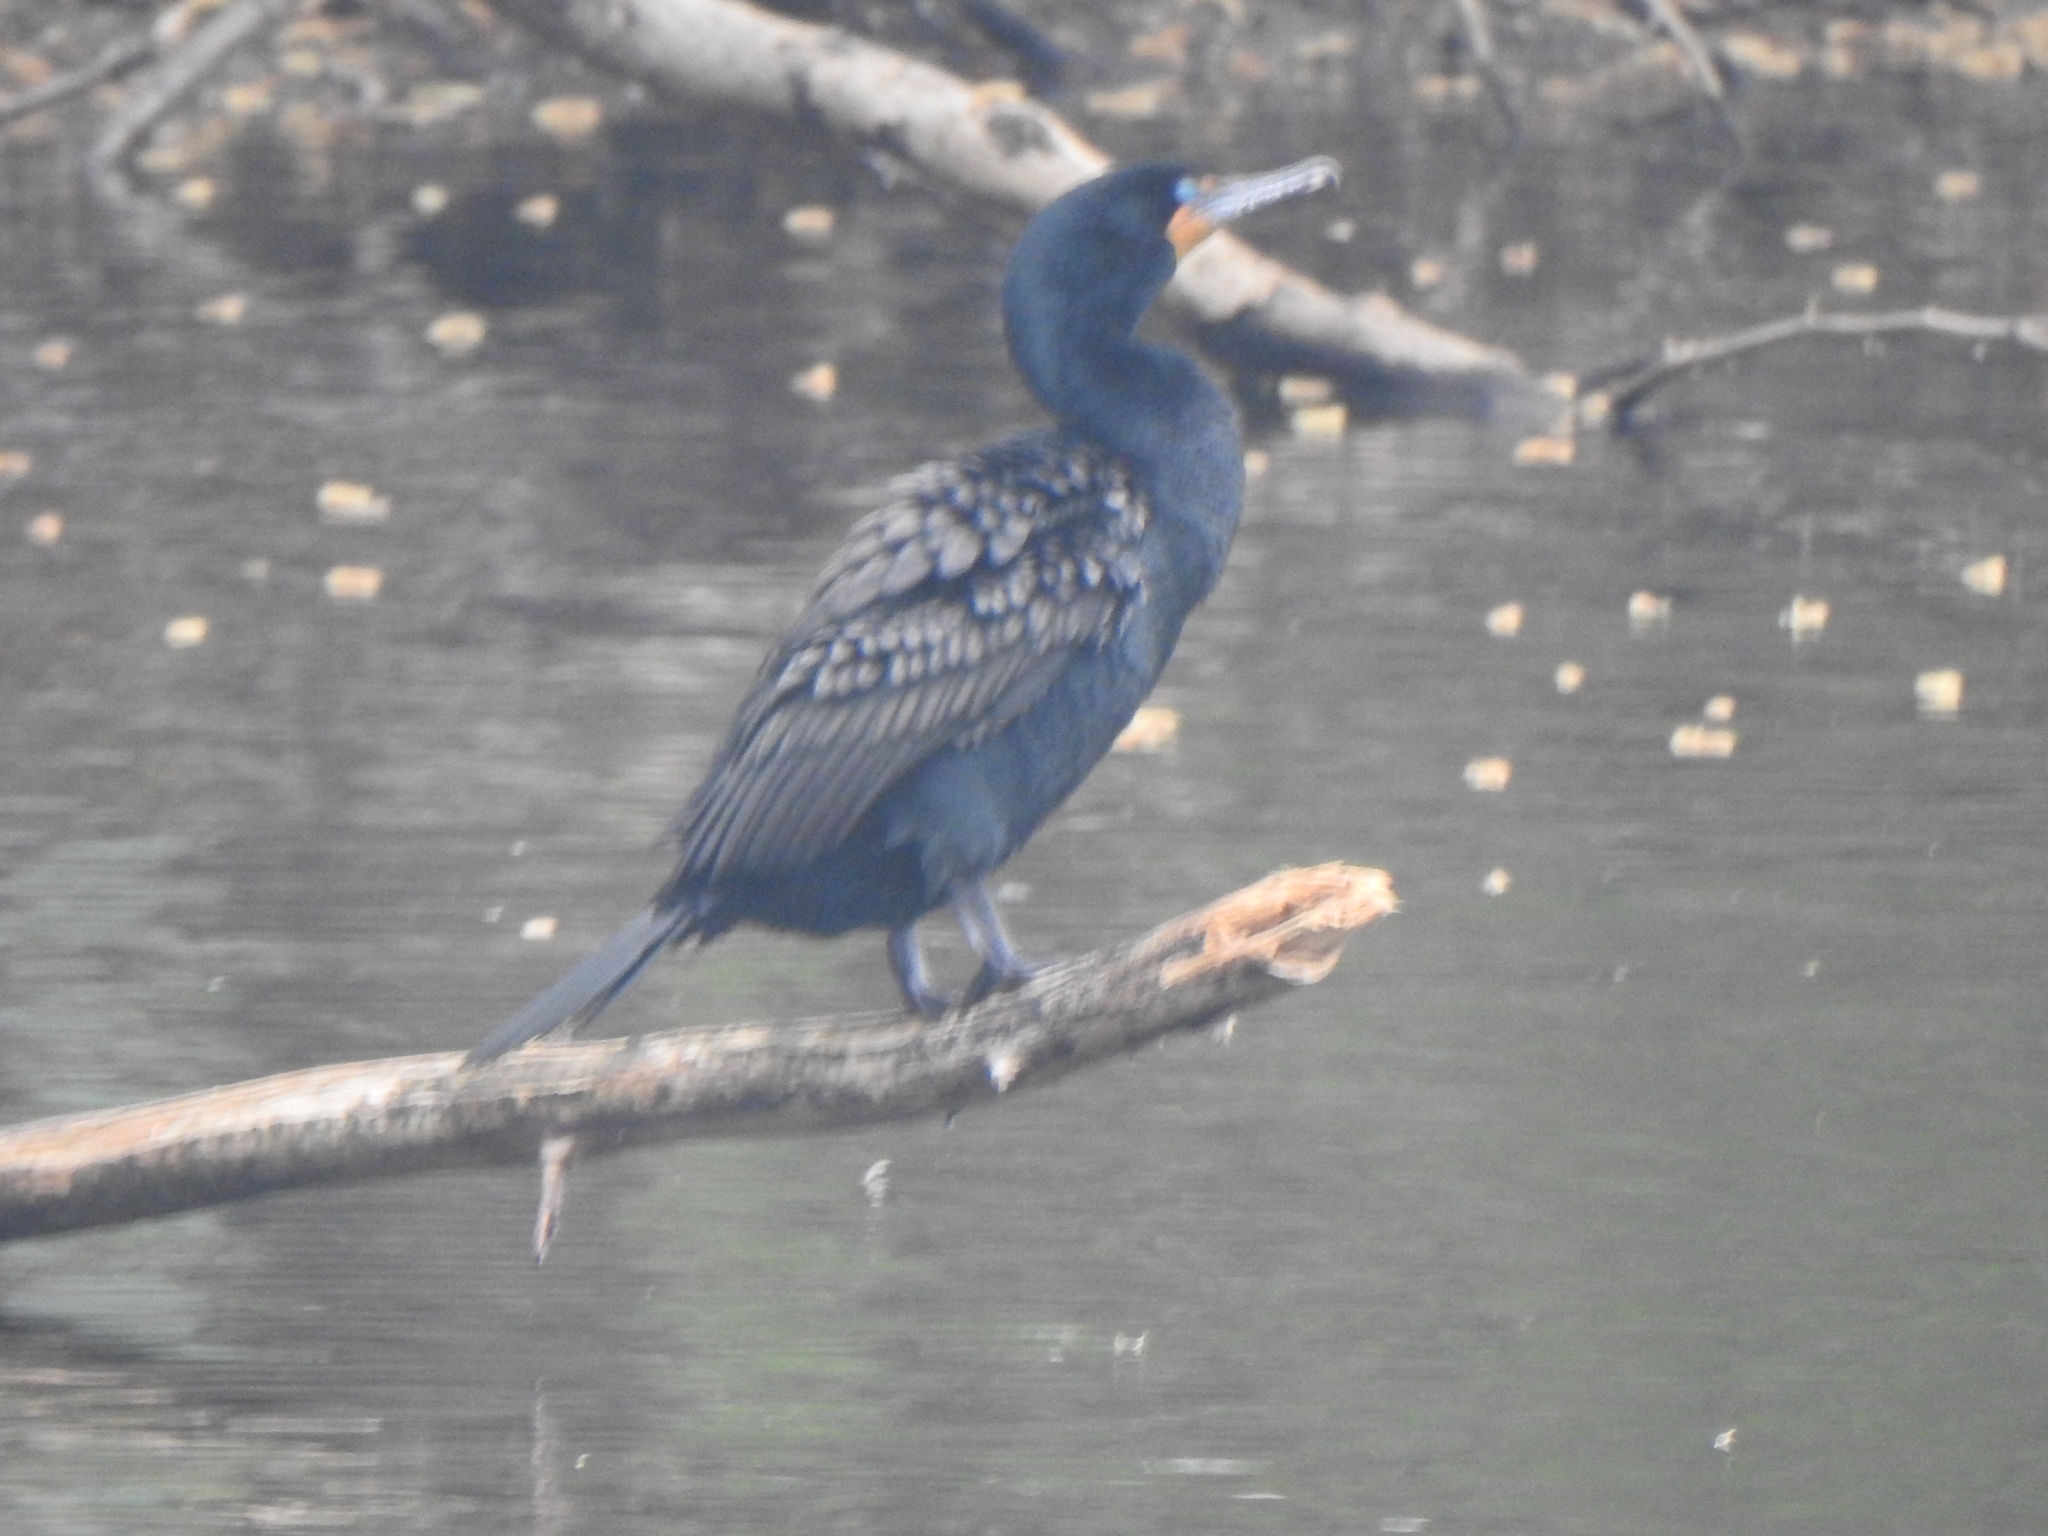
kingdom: Animalia
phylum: Chordata
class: Aves
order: Suliformes
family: Phalacrocoracidae
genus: Phalacrocorax
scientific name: Phalacrocorax auritus
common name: Double-crested cormorant
